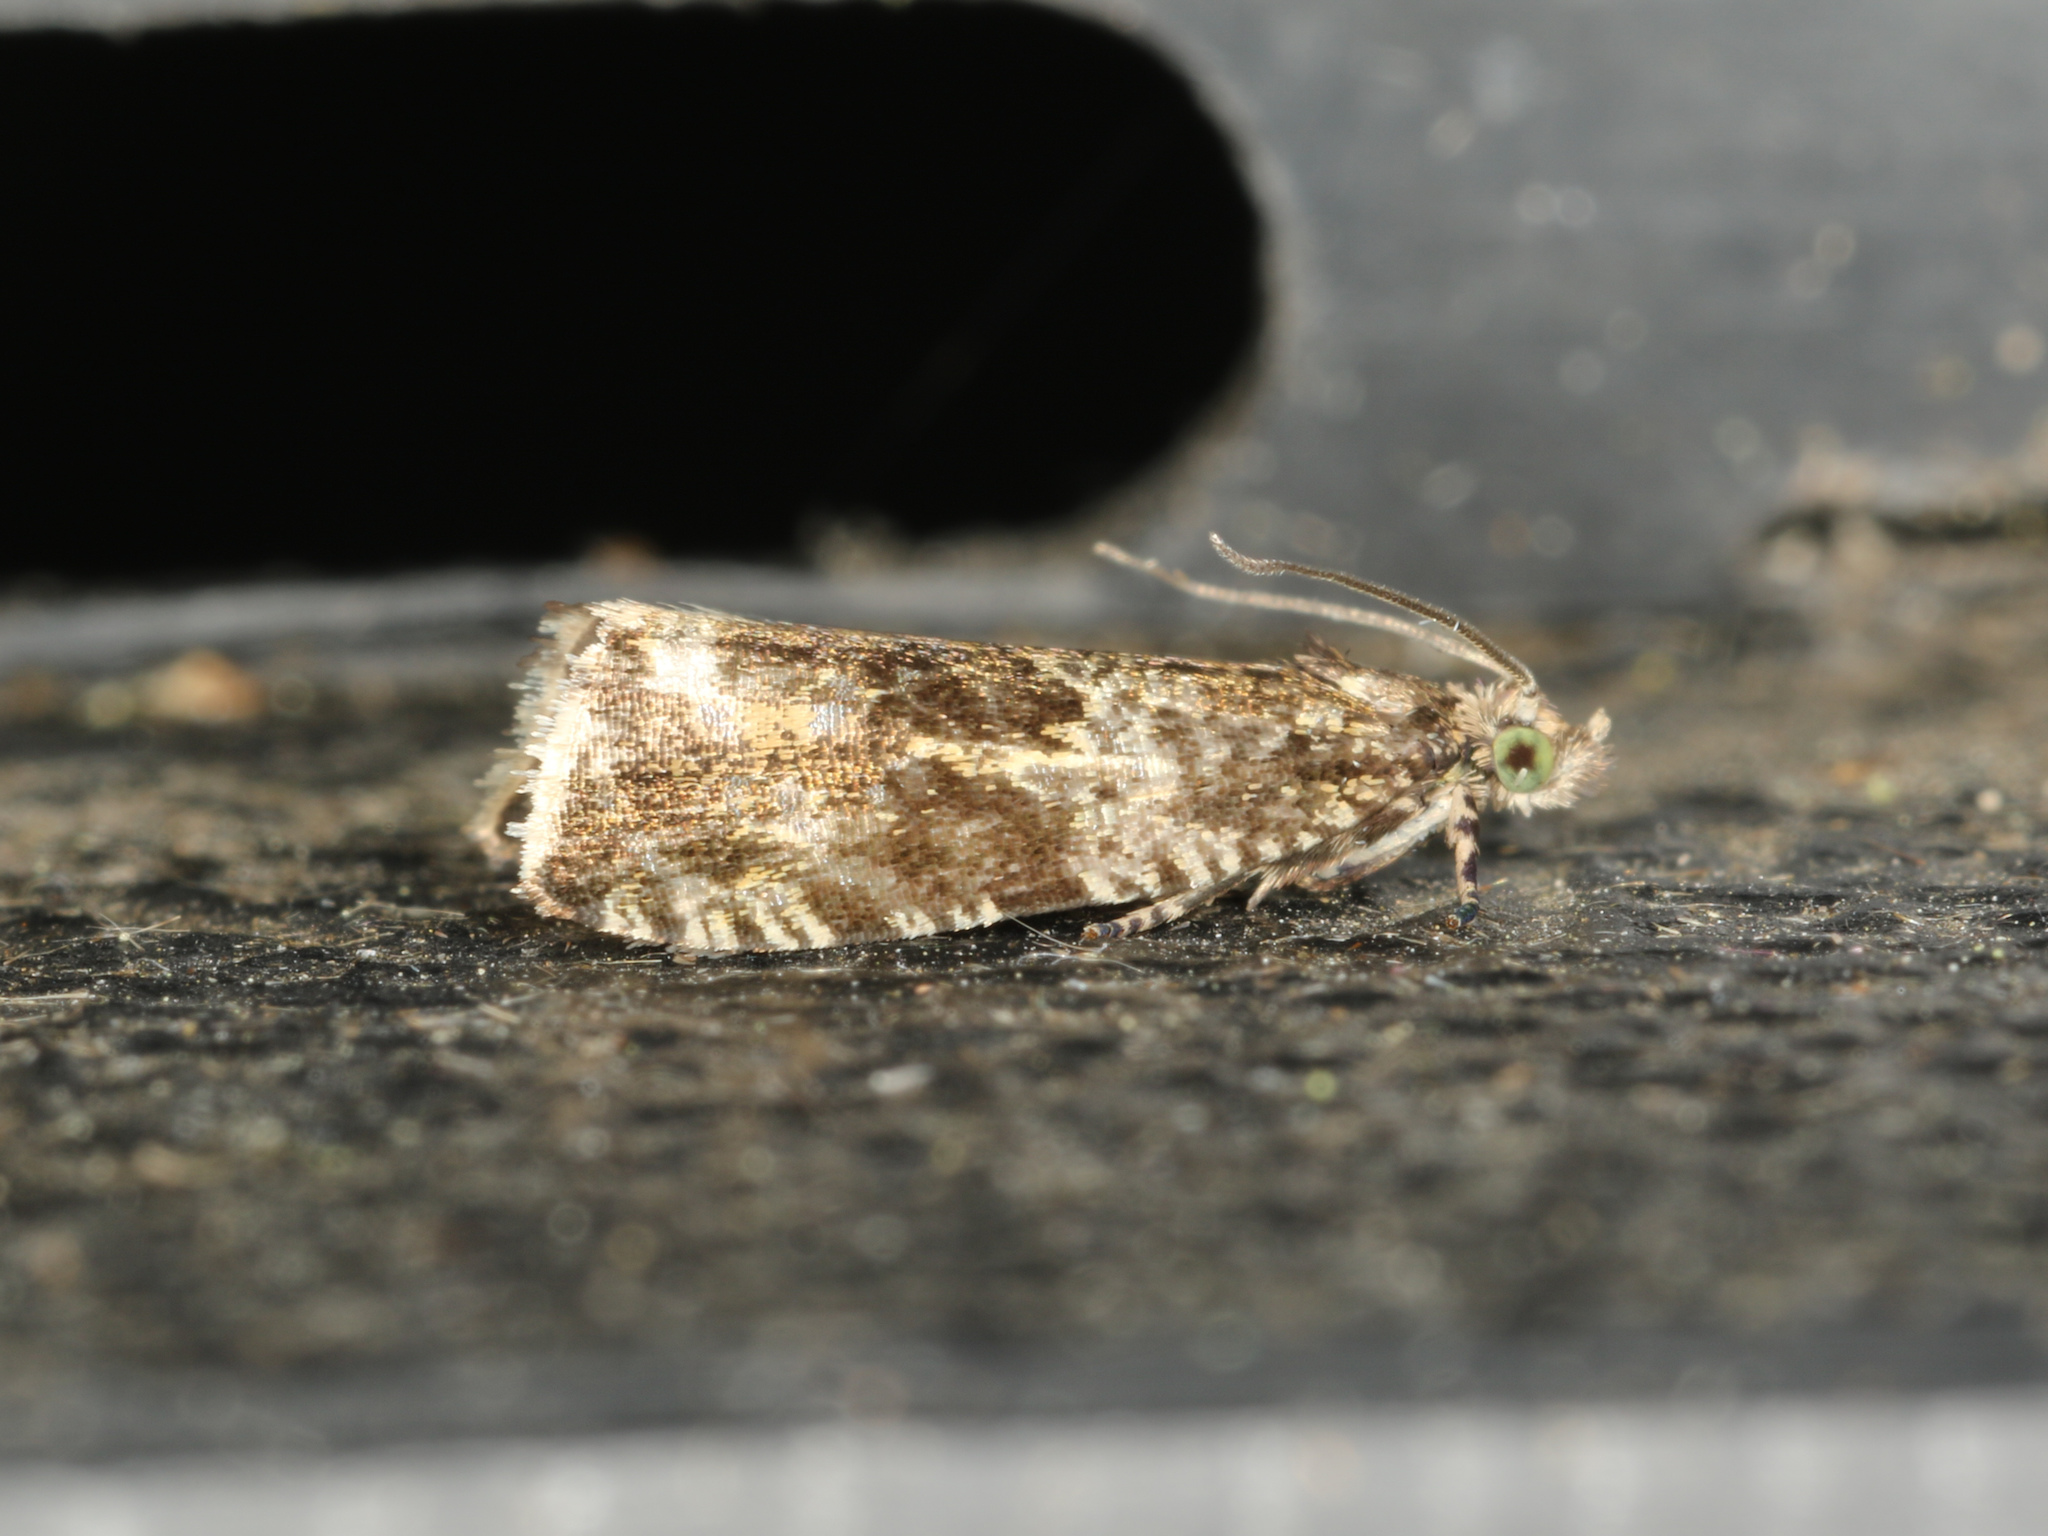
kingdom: Animalia
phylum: Arthropoda
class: Insecta
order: Lepidoptera
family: Tortricidae
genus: Syricoris
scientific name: Syricoris lacunana
